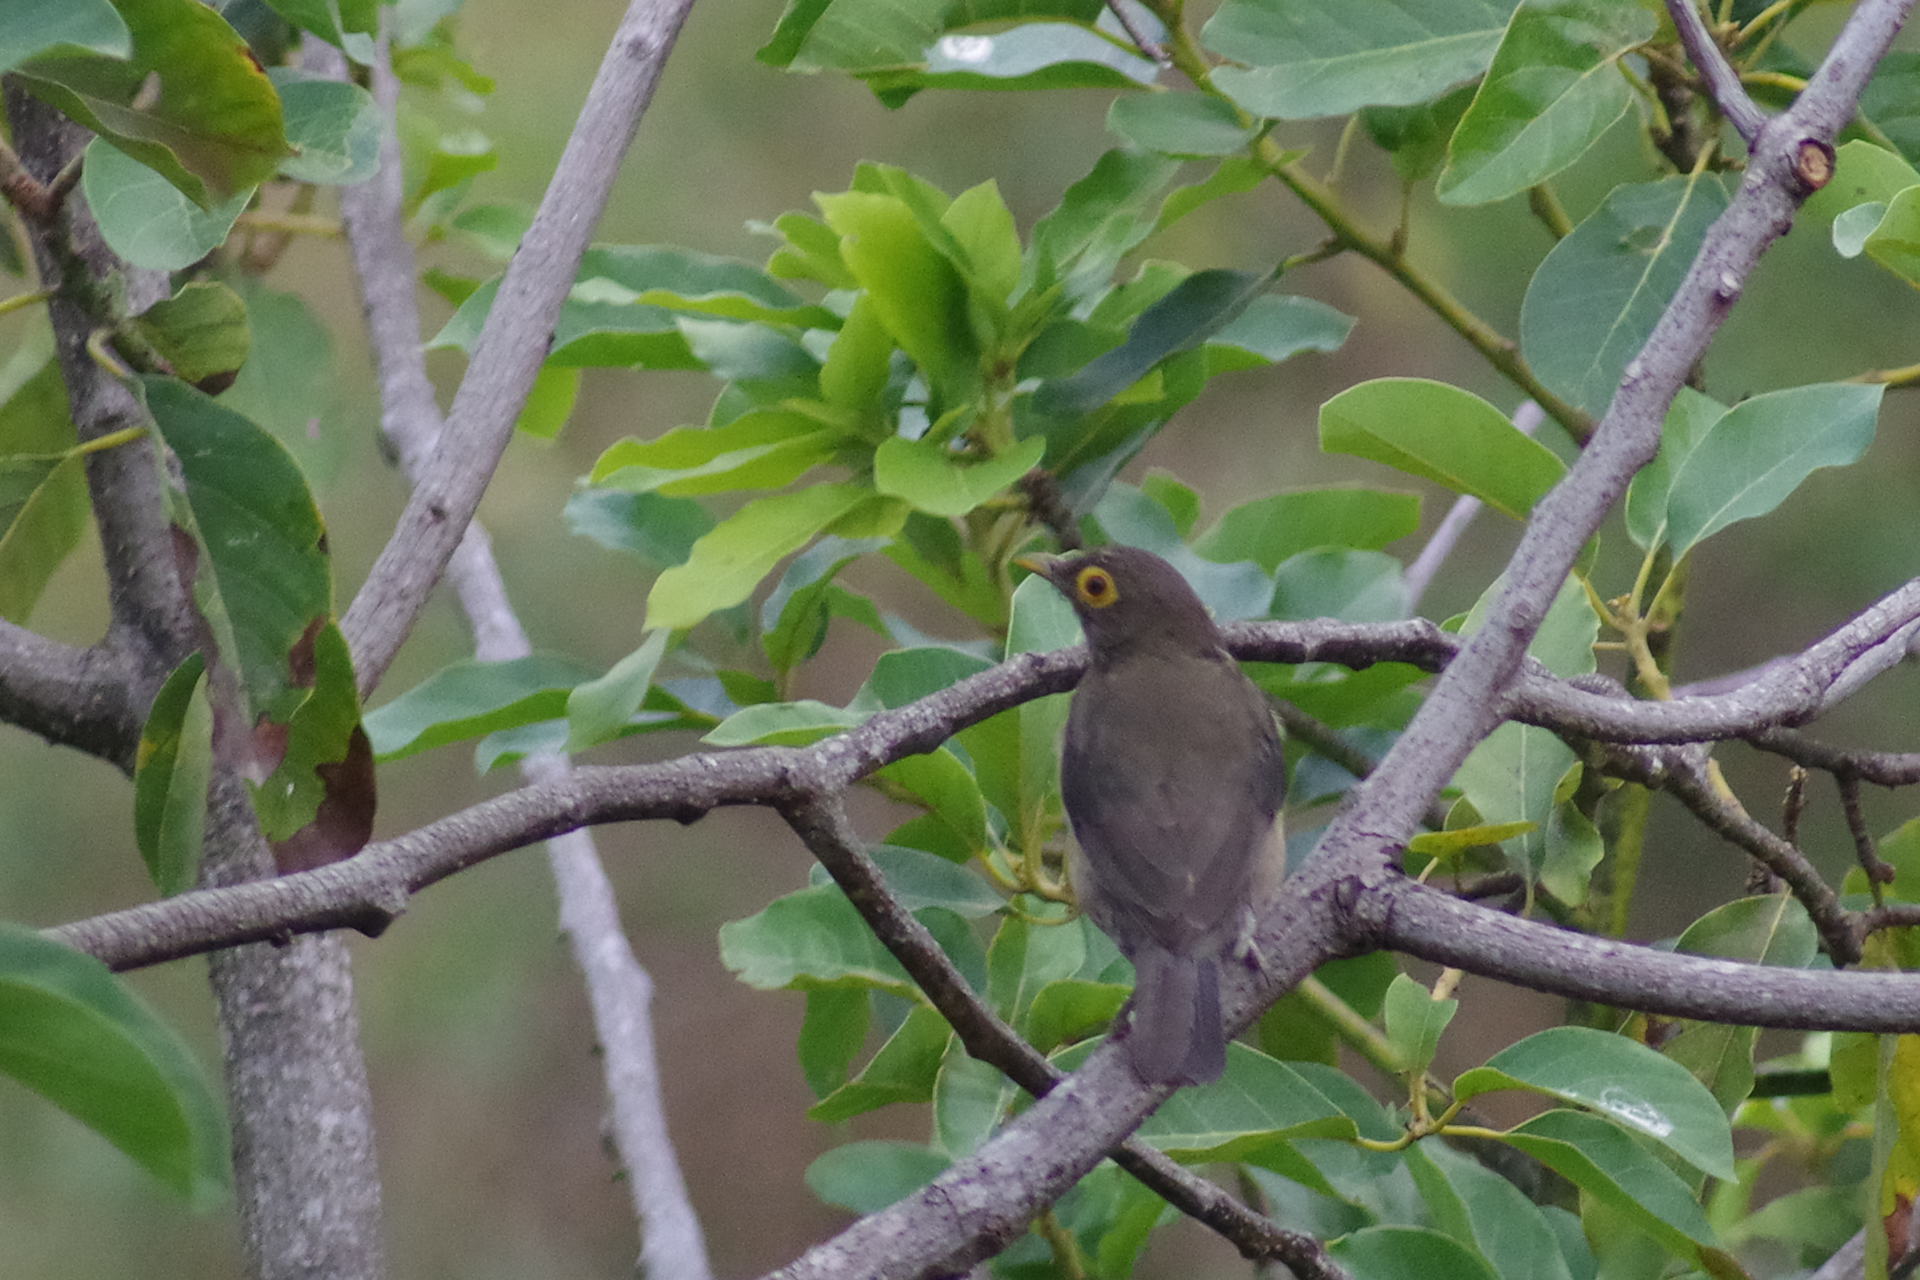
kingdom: Animalia
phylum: Chordata
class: Aves
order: Passeriformes
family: Turdidae
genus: Turdus
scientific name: Turdus nudigenis
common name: Spectacled thrush
